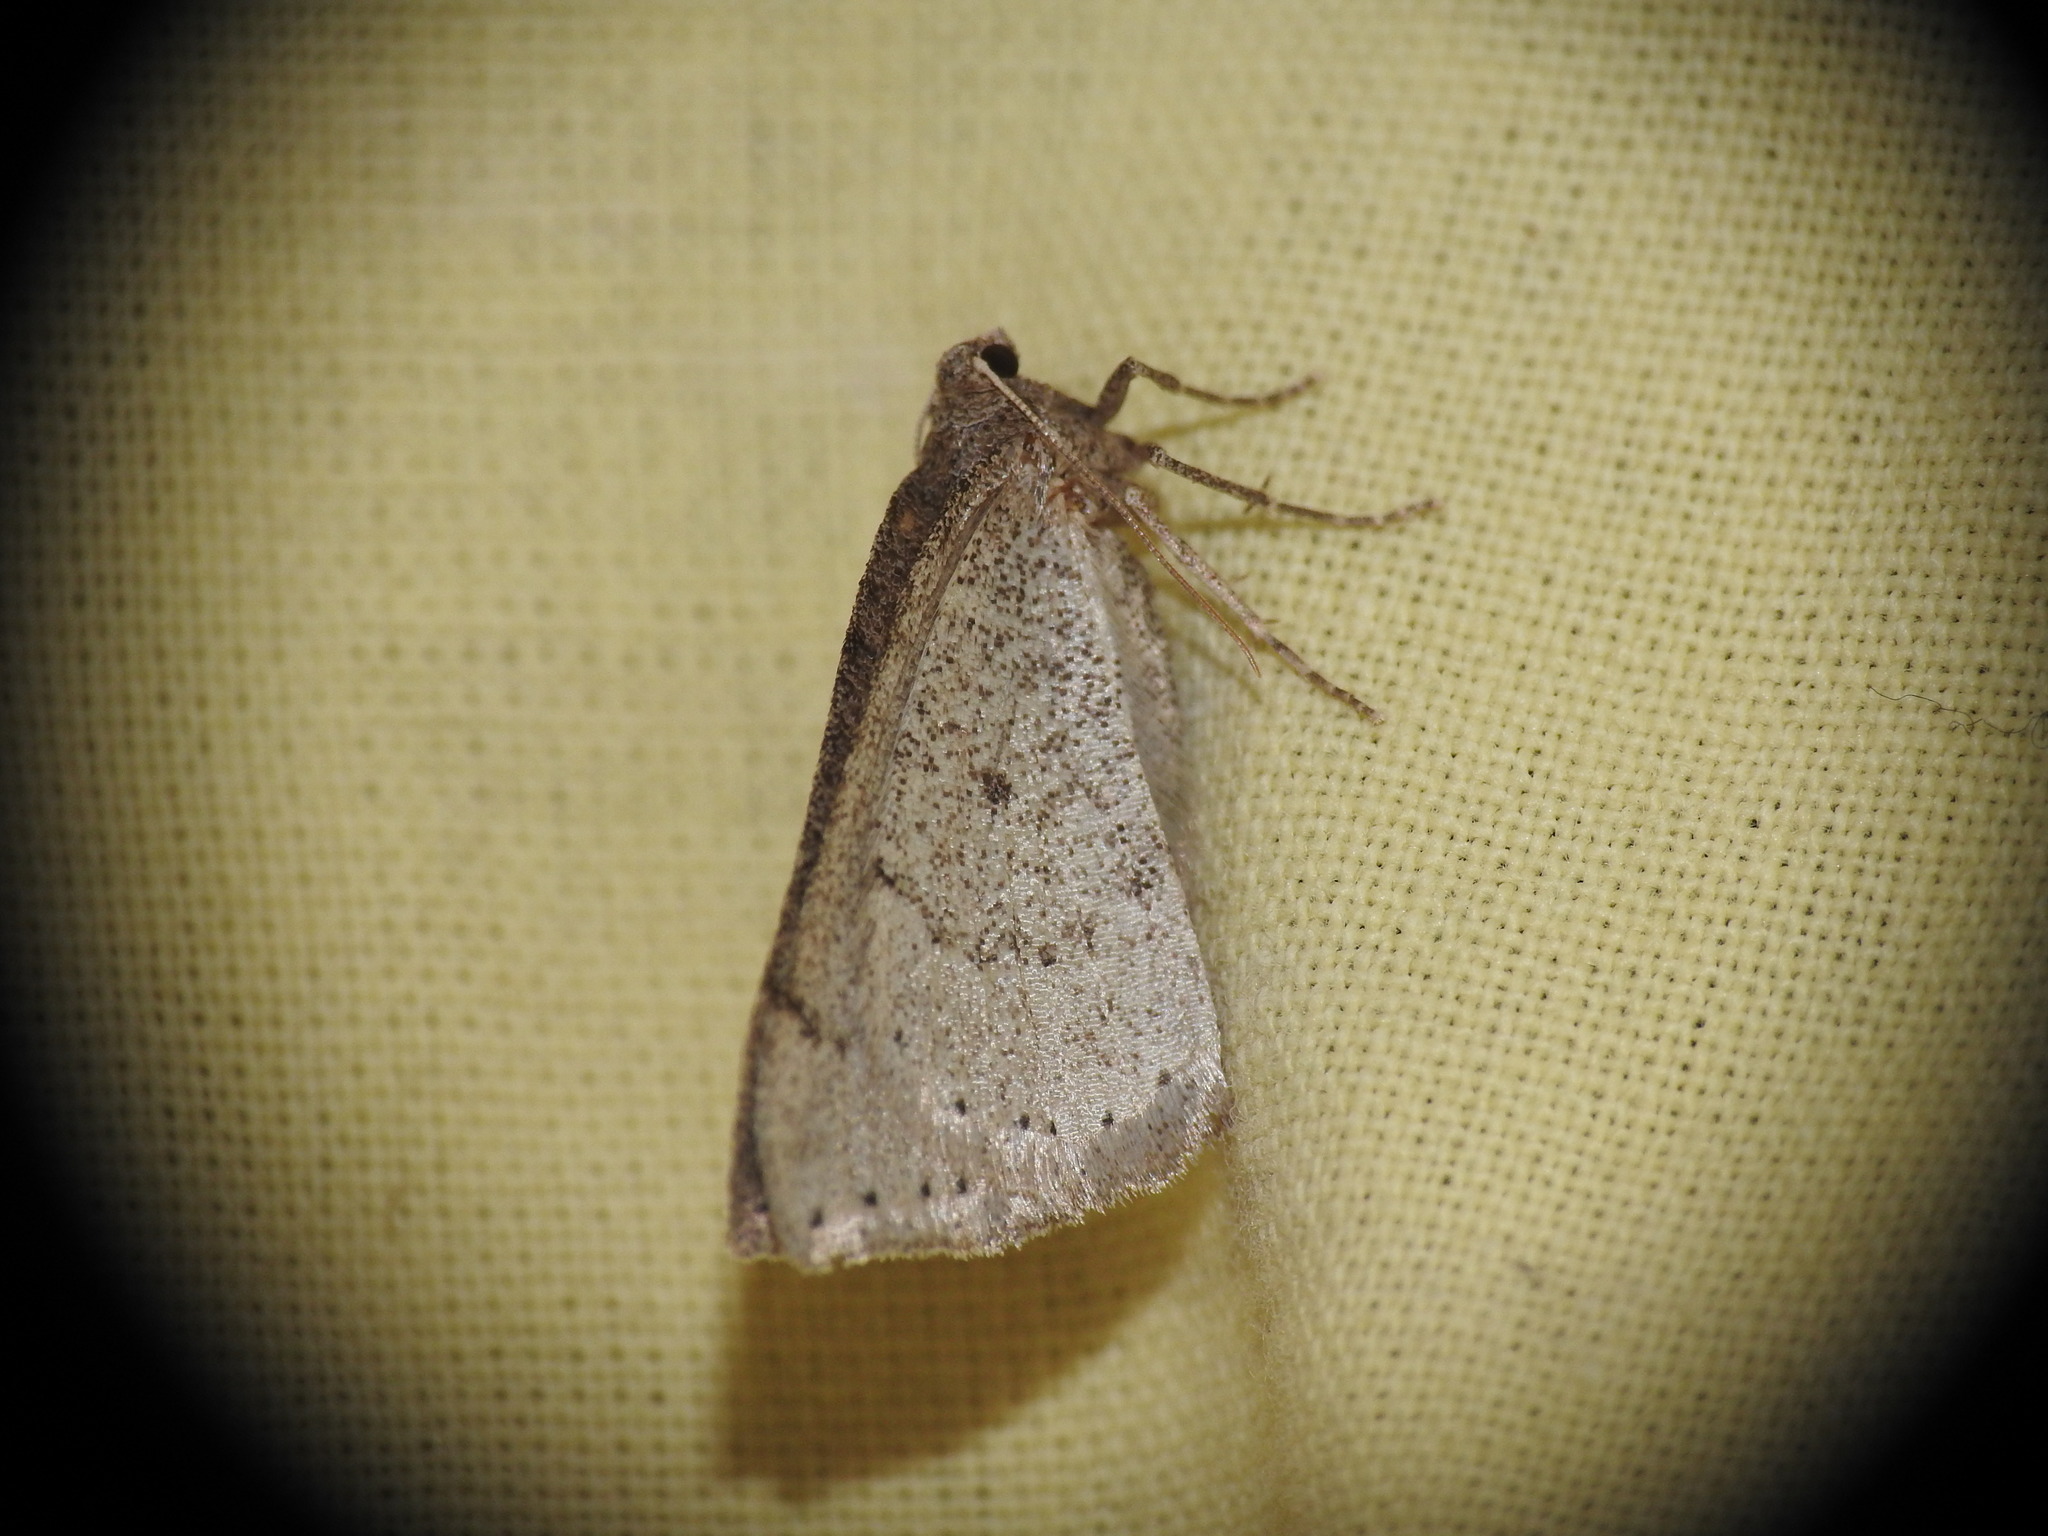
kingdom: Animalia
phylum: Arthropoda
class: Insecta
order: Lepidoptera
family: Geometridae
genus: Aleucis
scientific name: Aleucis distinctata
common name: Sloe carpet
